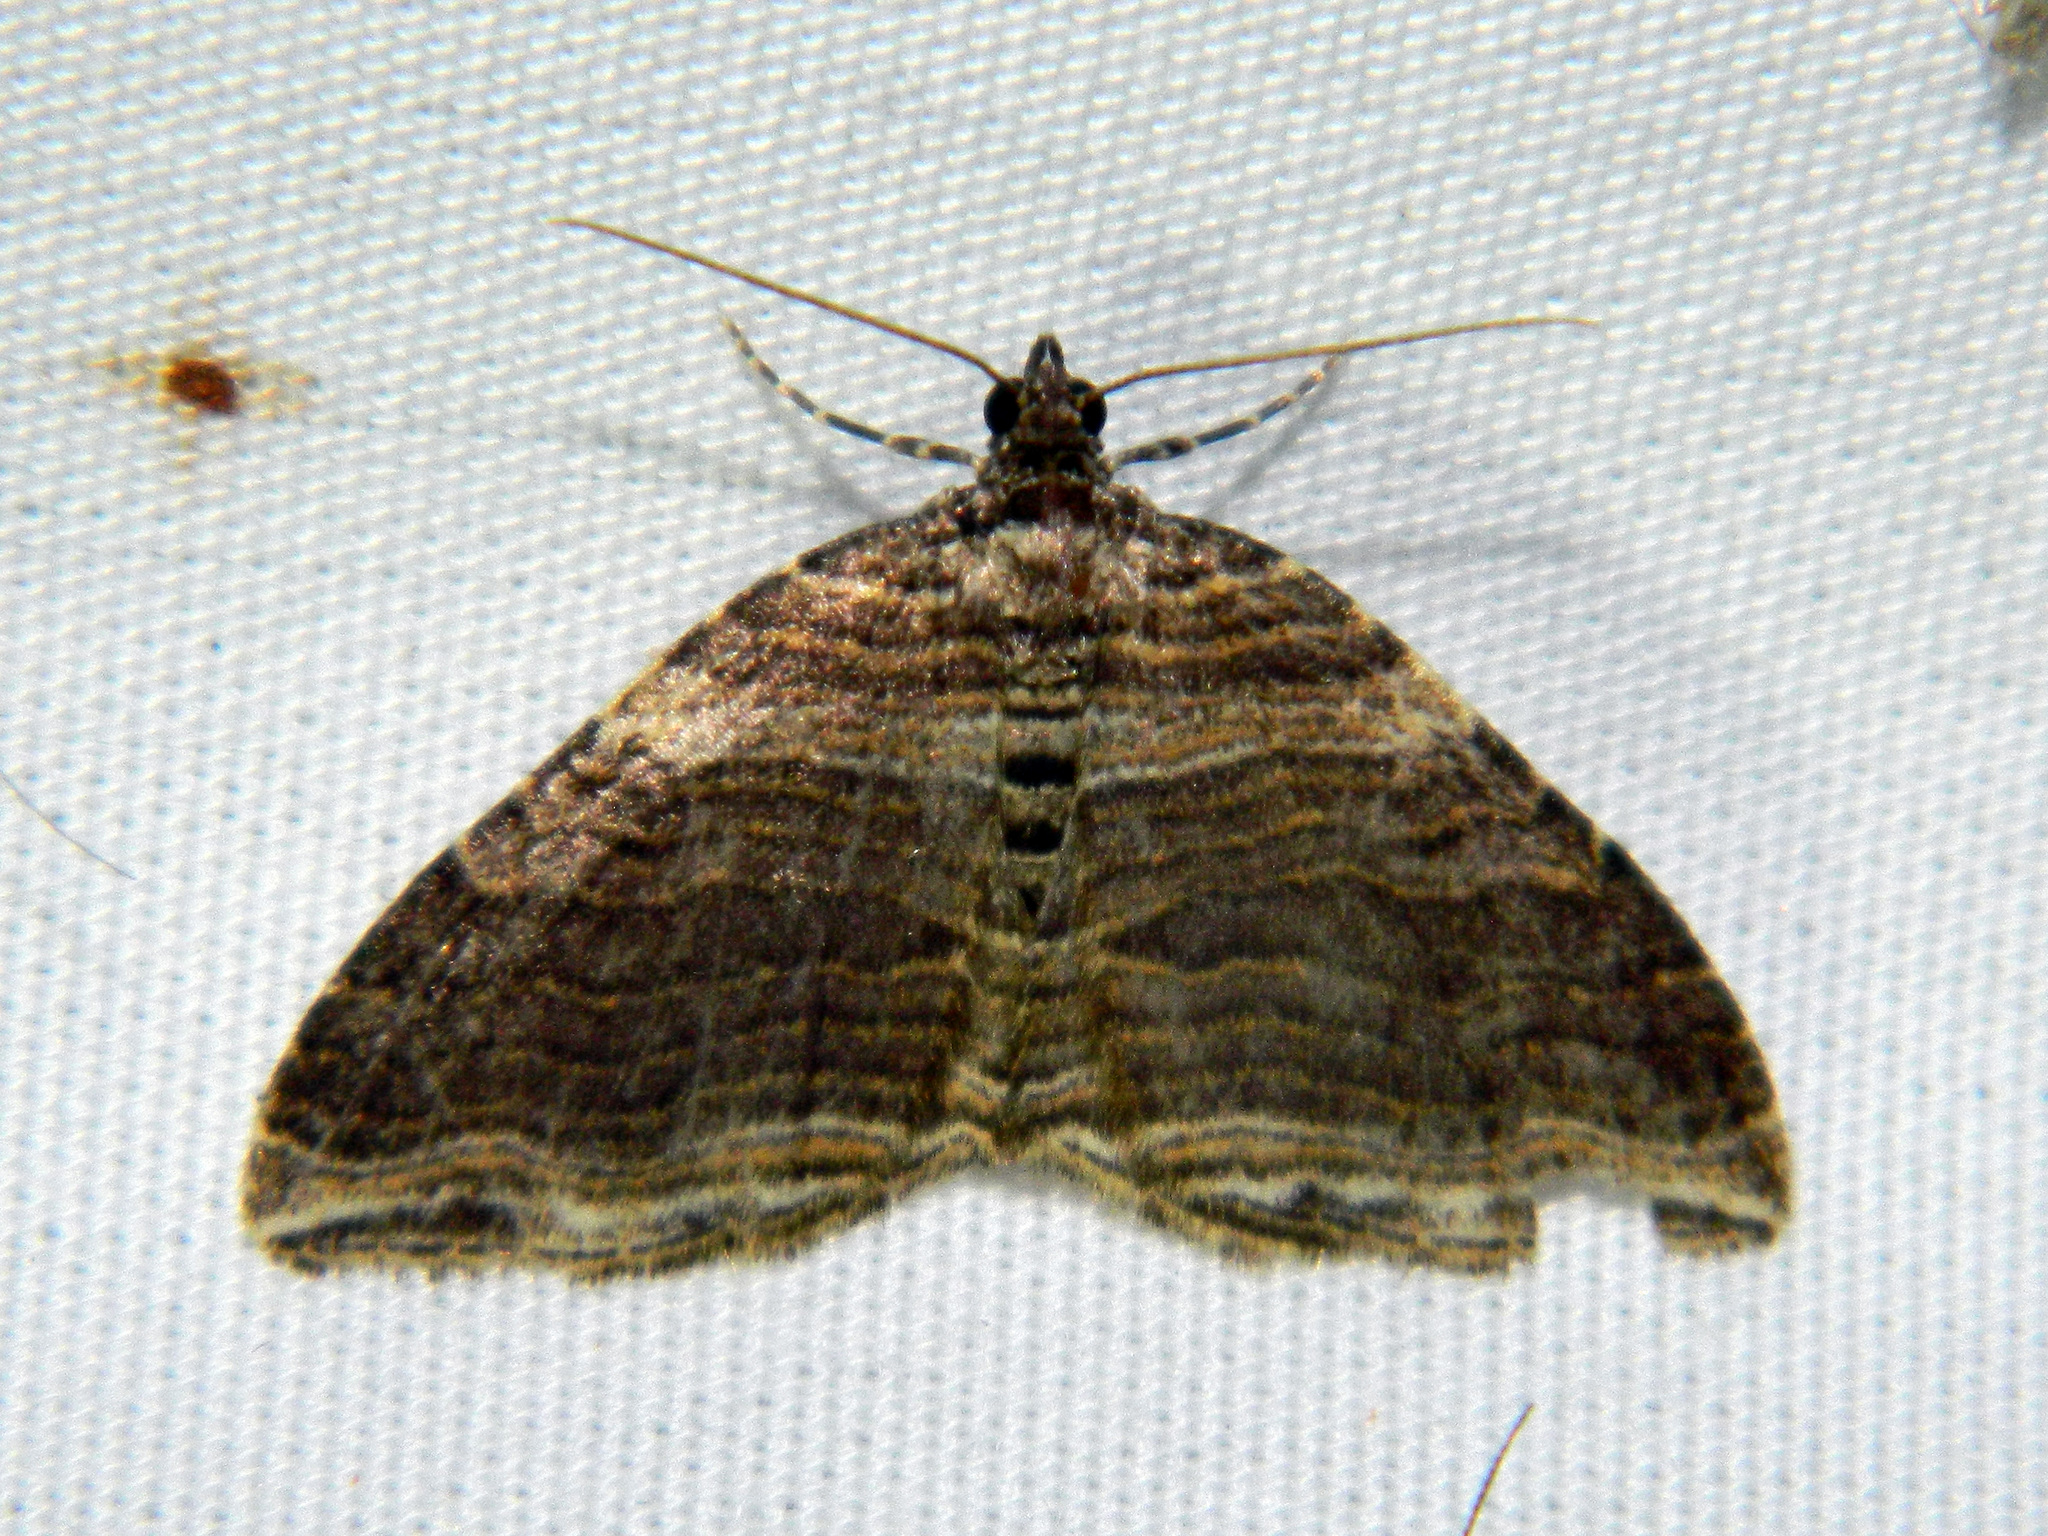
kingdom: Animalia
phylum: Arthropoda
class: Insecta
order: Lepidoptera
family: Geometridae
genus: Anticlea
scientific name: Anticlea multiferata
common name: Many-lined carpet
